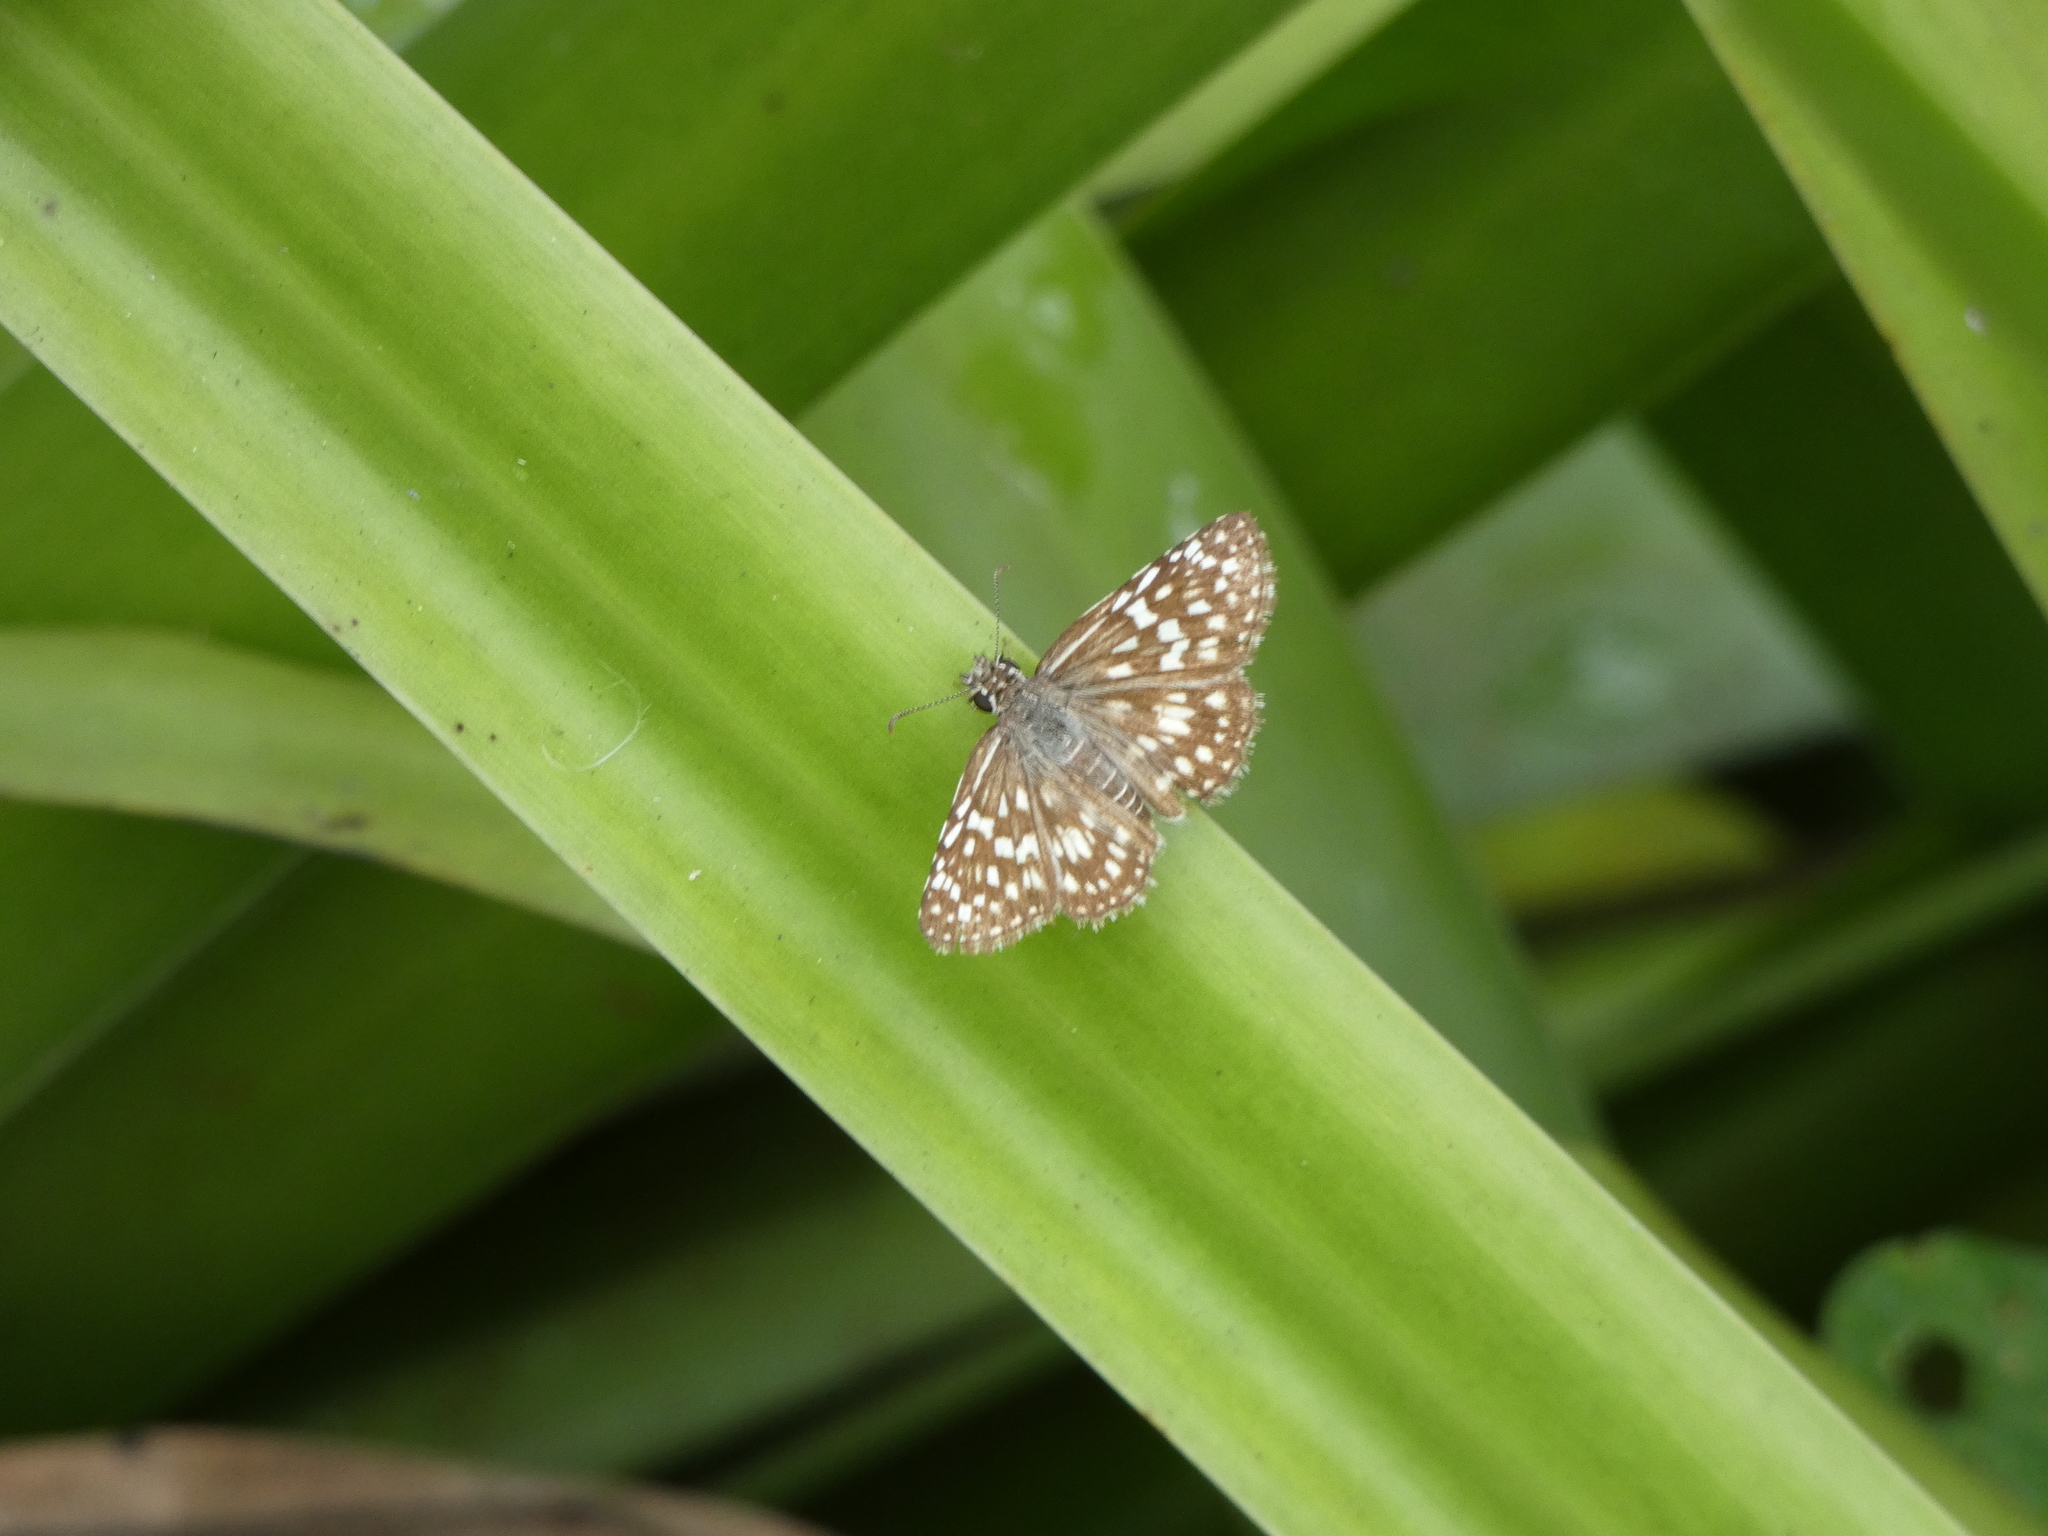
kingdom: Animalia
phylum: Arthropoda
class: Insecta
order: Lepidoptera
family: Hesperiidae
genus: Pyrgus
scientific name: Pyrgus oileus
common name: Tropical checkered-skipper
